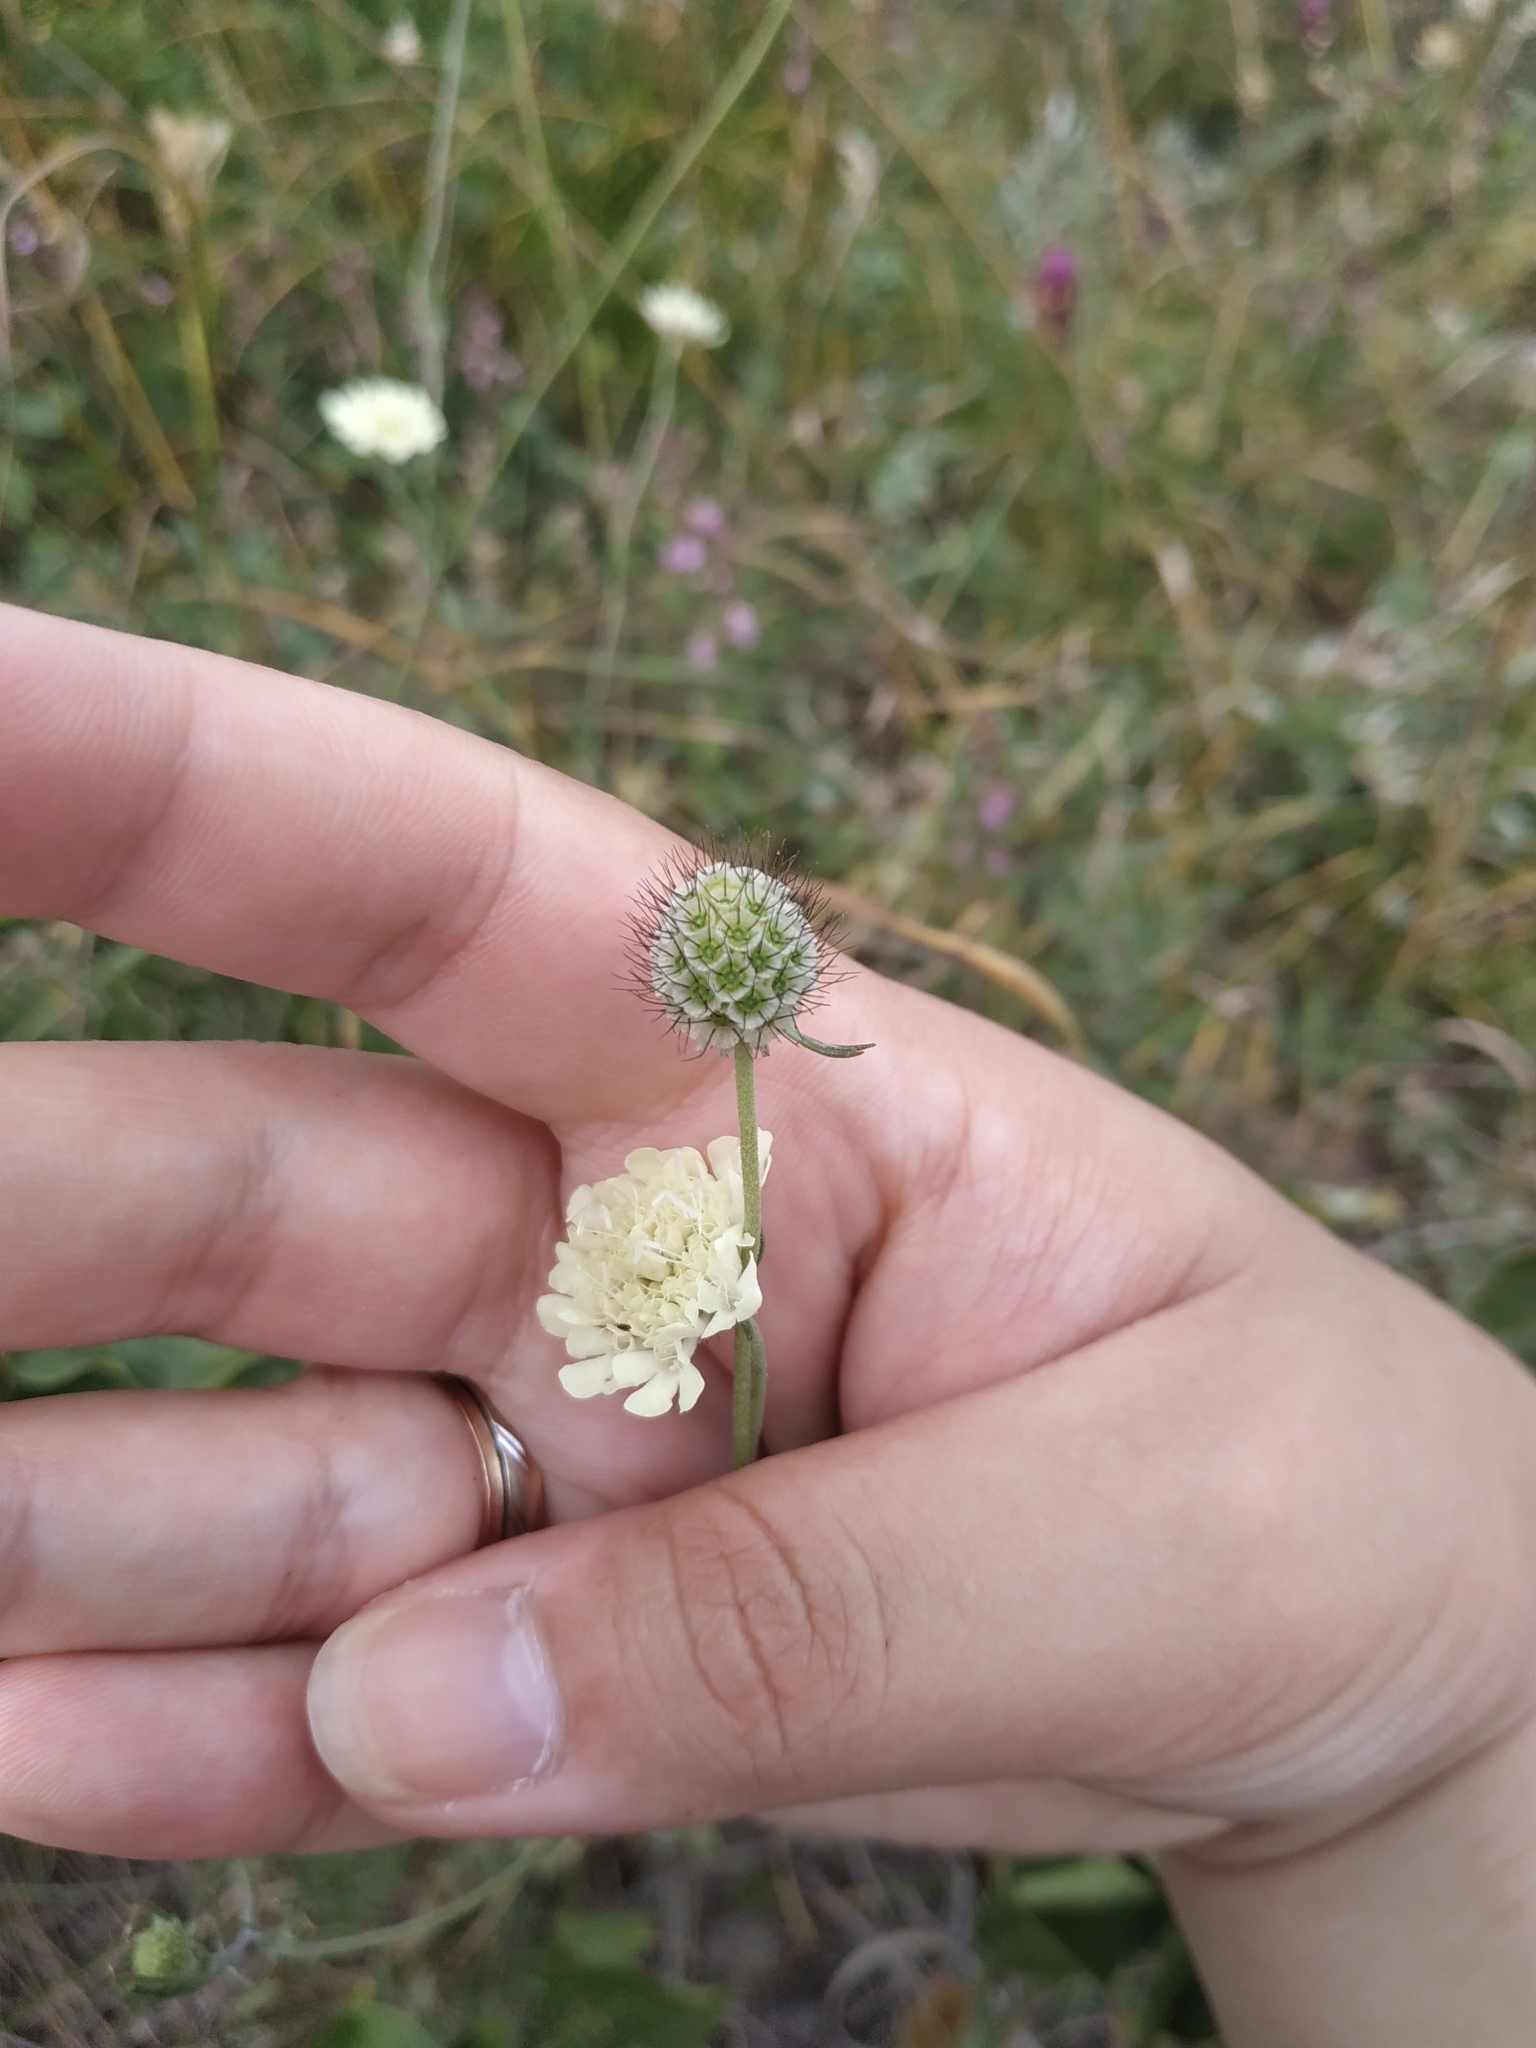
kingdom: Plantae
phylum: Tracheophyta
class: Magnoliopsida
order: Dipsacales
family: Caprifoliaceae
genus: Scabiosa
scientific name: Scabiosa ochroleuca
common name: Cream pincushions
